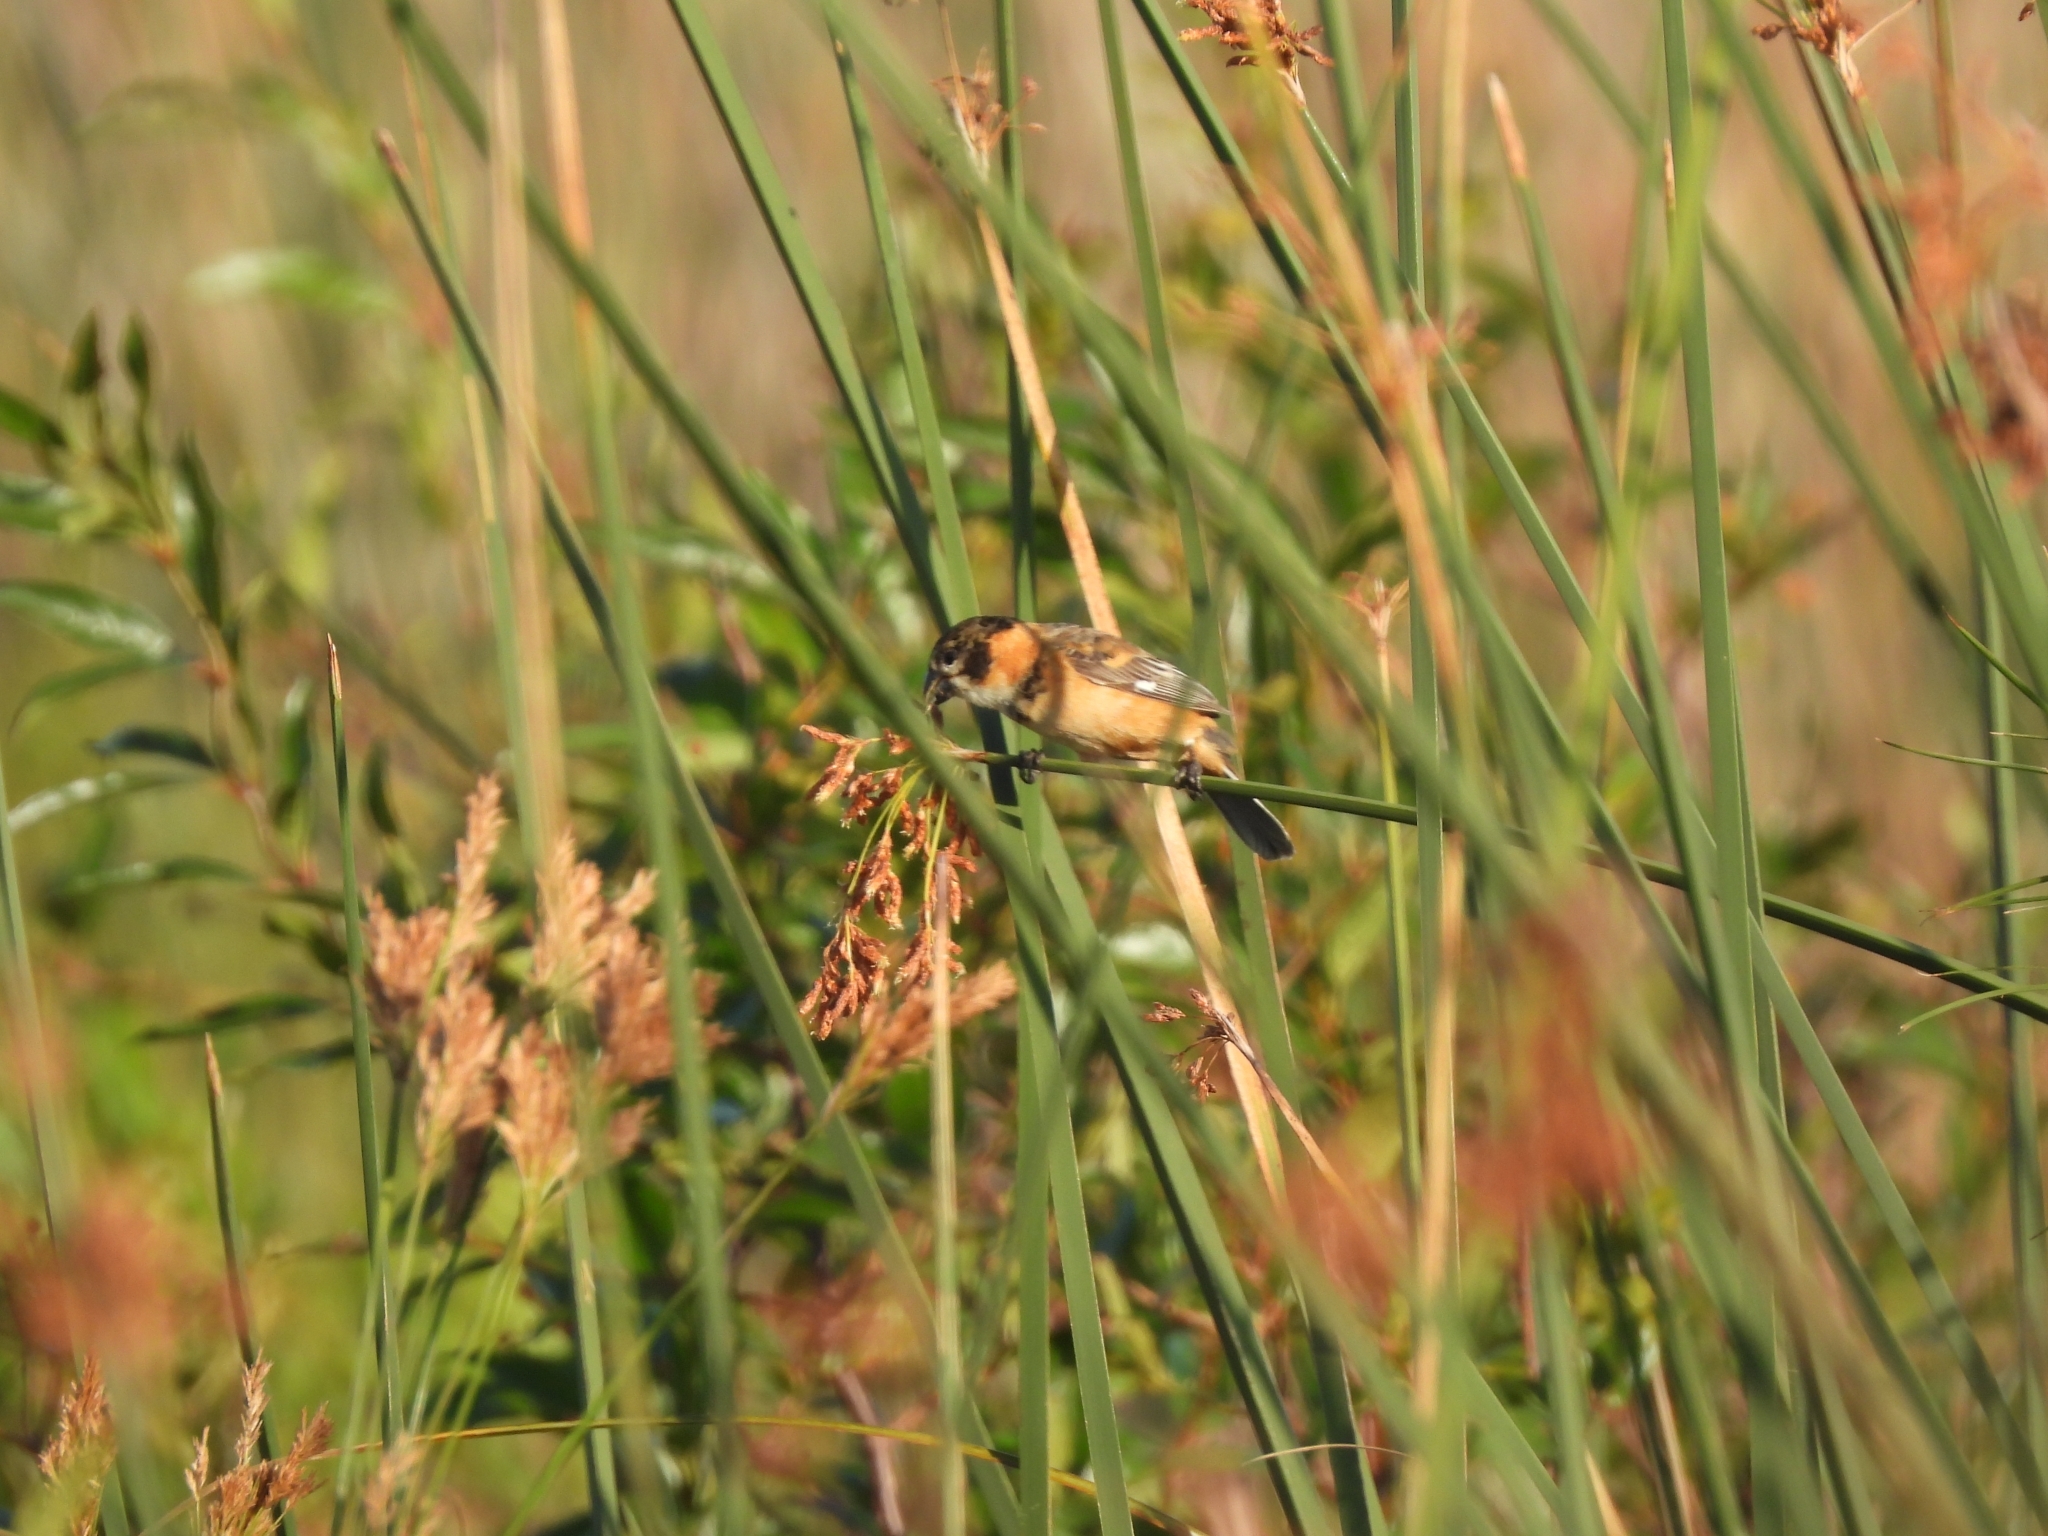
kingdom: Animalia
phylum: Chordata
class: Aves
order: Passeriformes
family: Thraupidae
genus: Sporophila
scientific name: Sporophila collaris
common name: Rusty-collared seedeater
